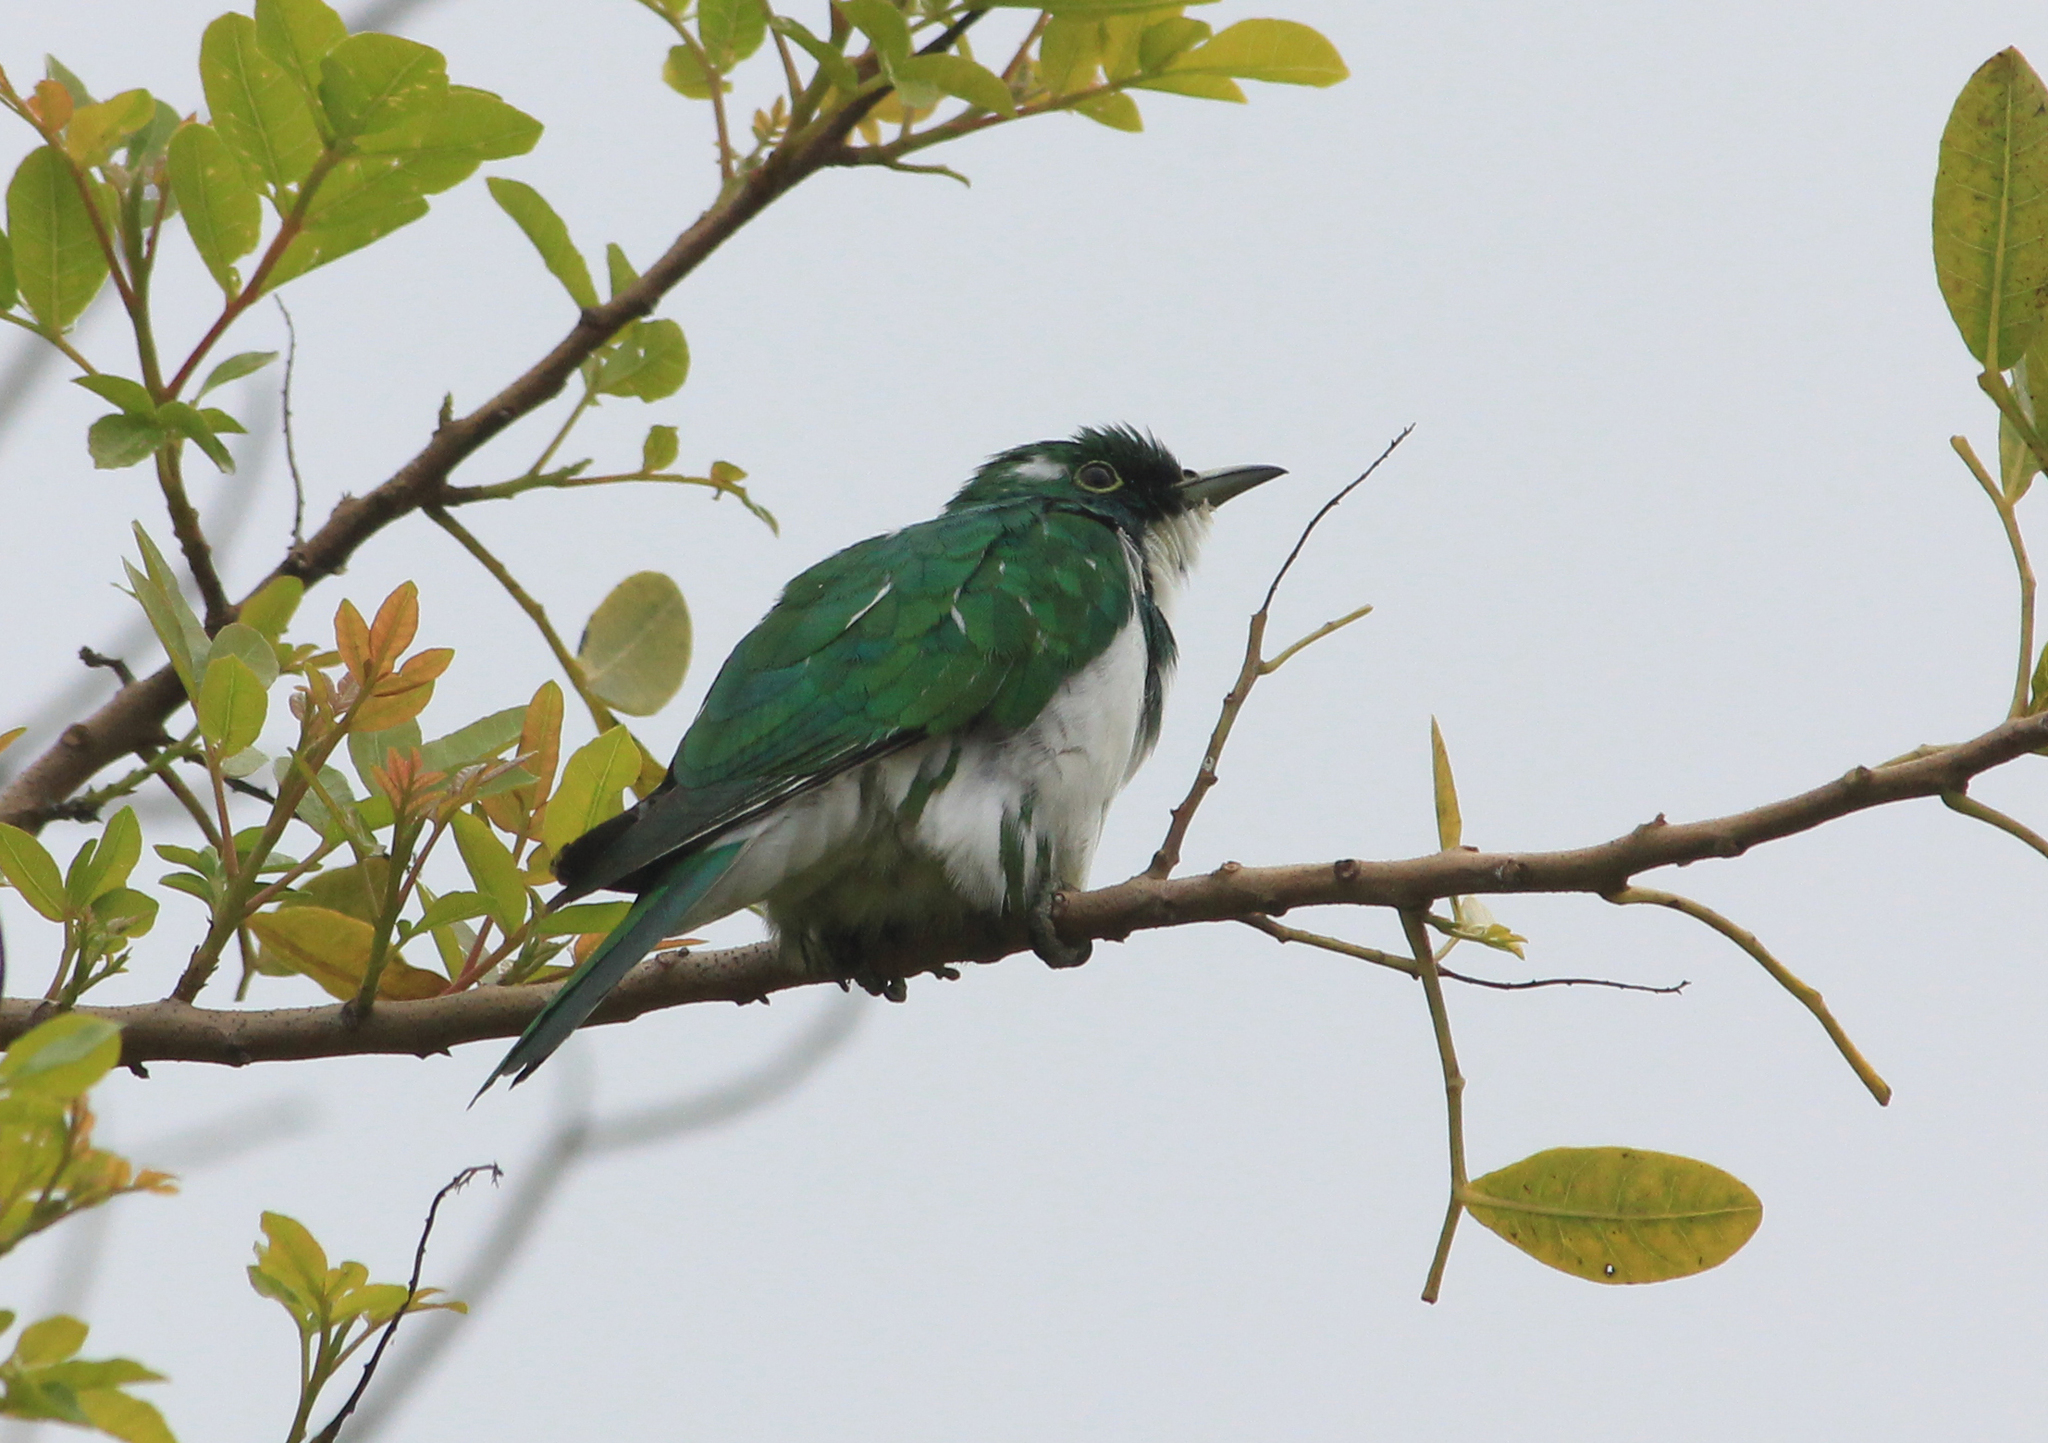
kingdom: Animalia
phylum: Chordata
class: Aves
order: Cuculiformes
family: Cuculidae
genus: Chrysococcyx
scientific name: Chrysococcyx klaas
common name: Klaas's cuckoo
